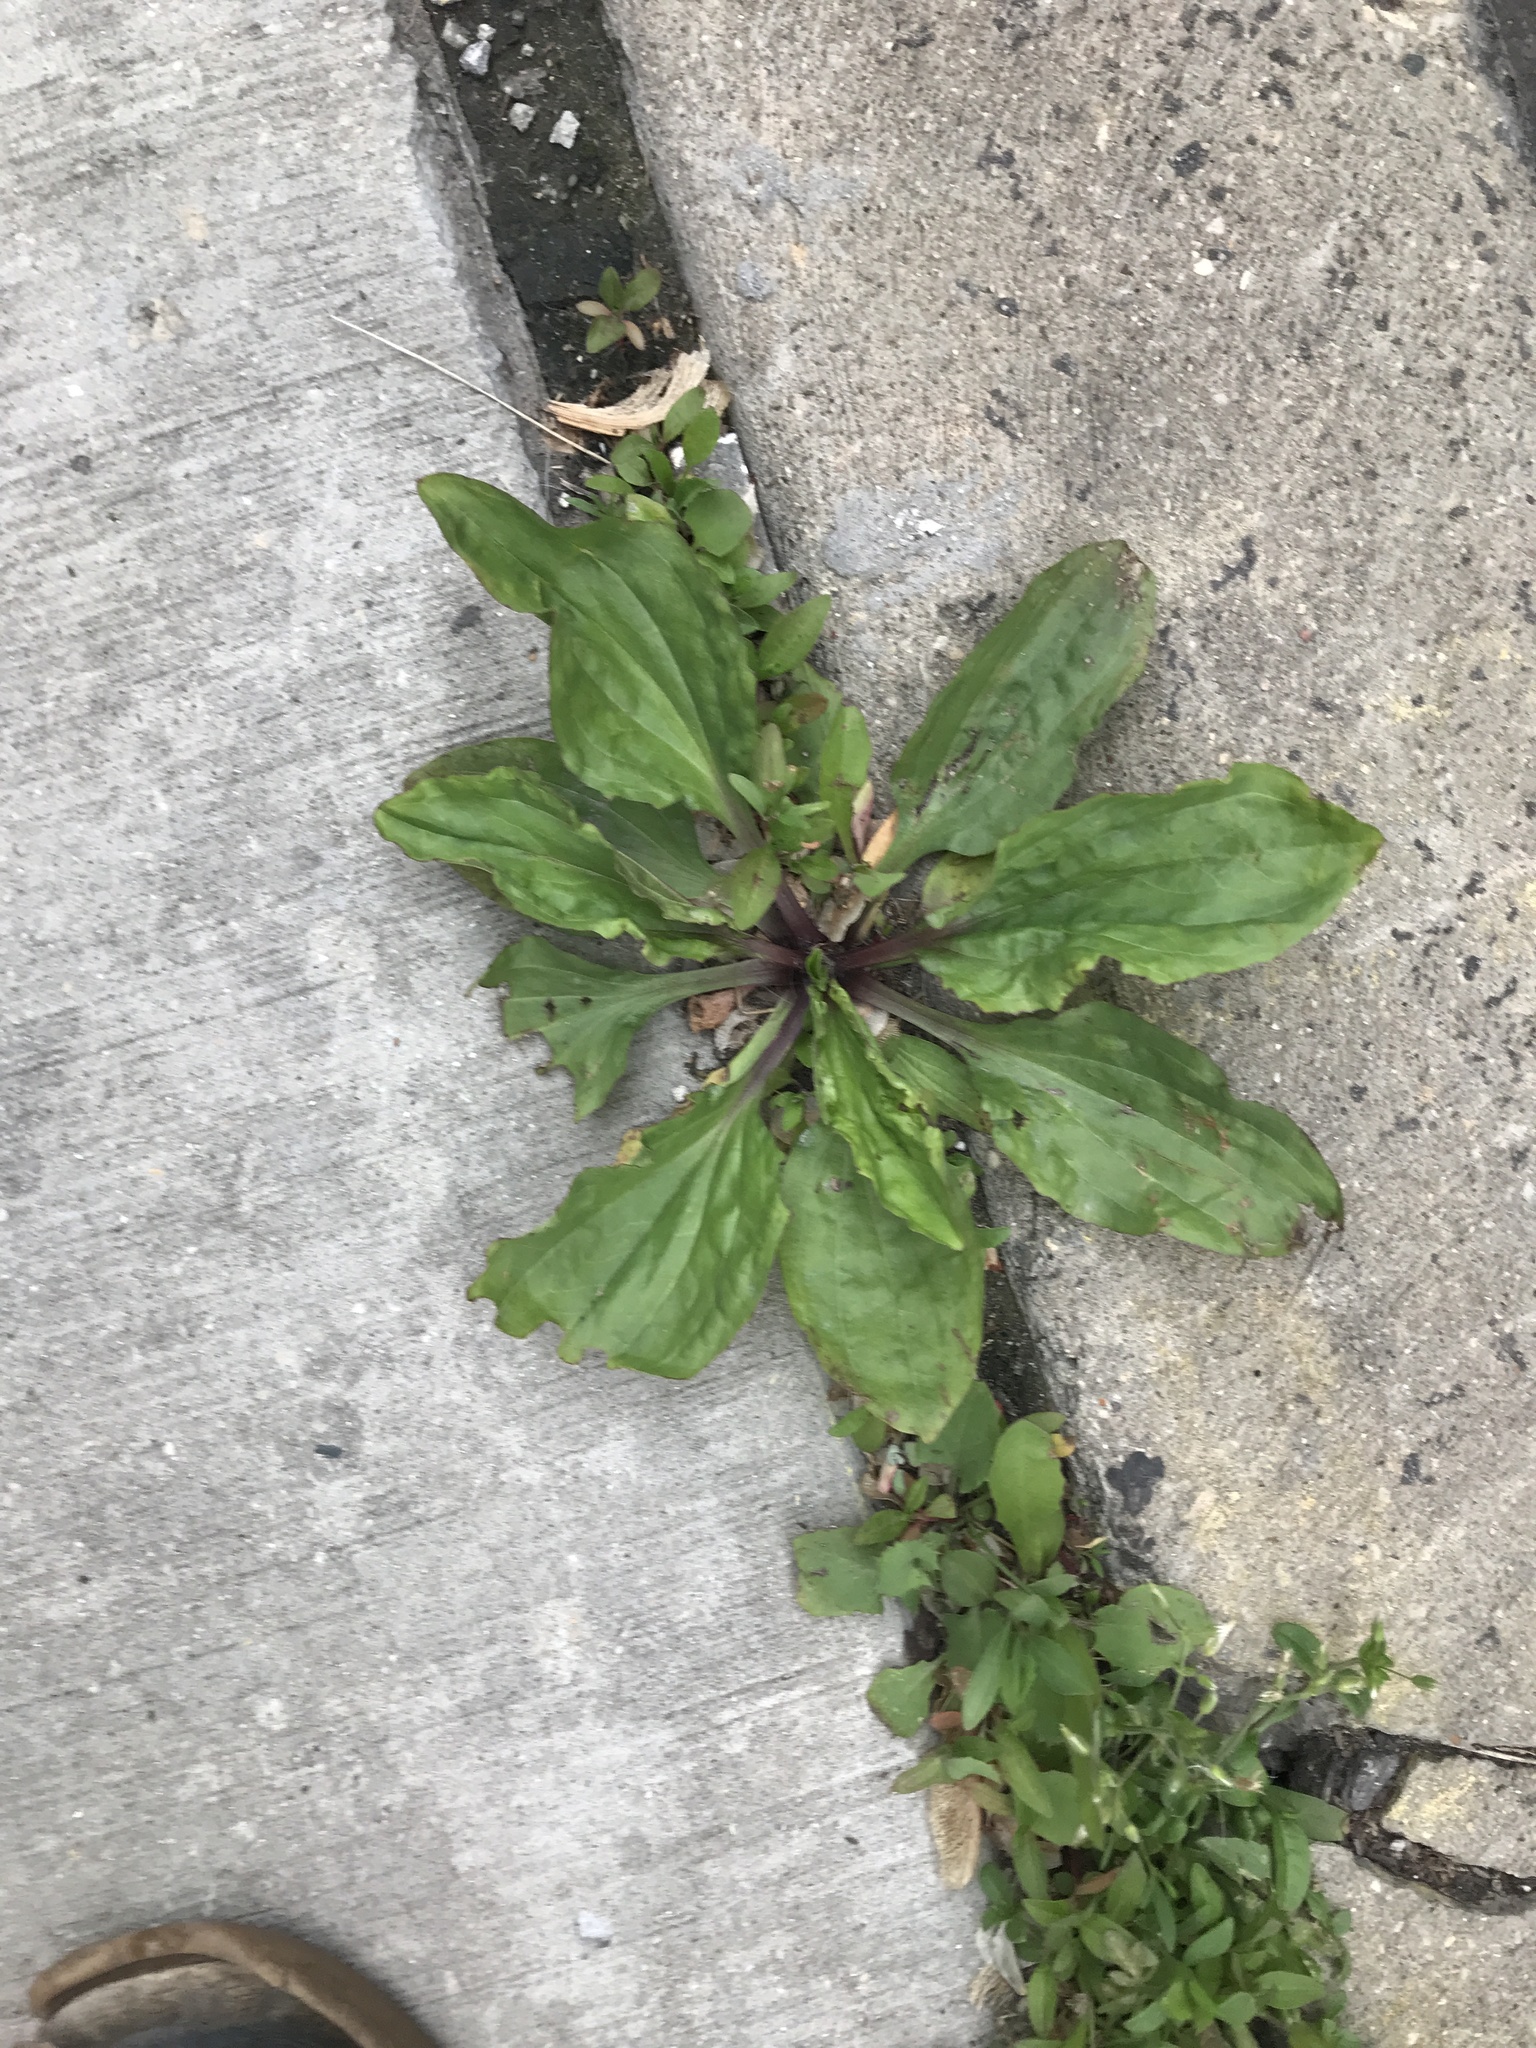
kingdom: Plantae
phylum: Tracheophyta
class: Magnoliopsida
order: Lamiales
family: Plantaginaceae
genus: Plantago
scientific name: Plantago rugelii
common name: American plantain
